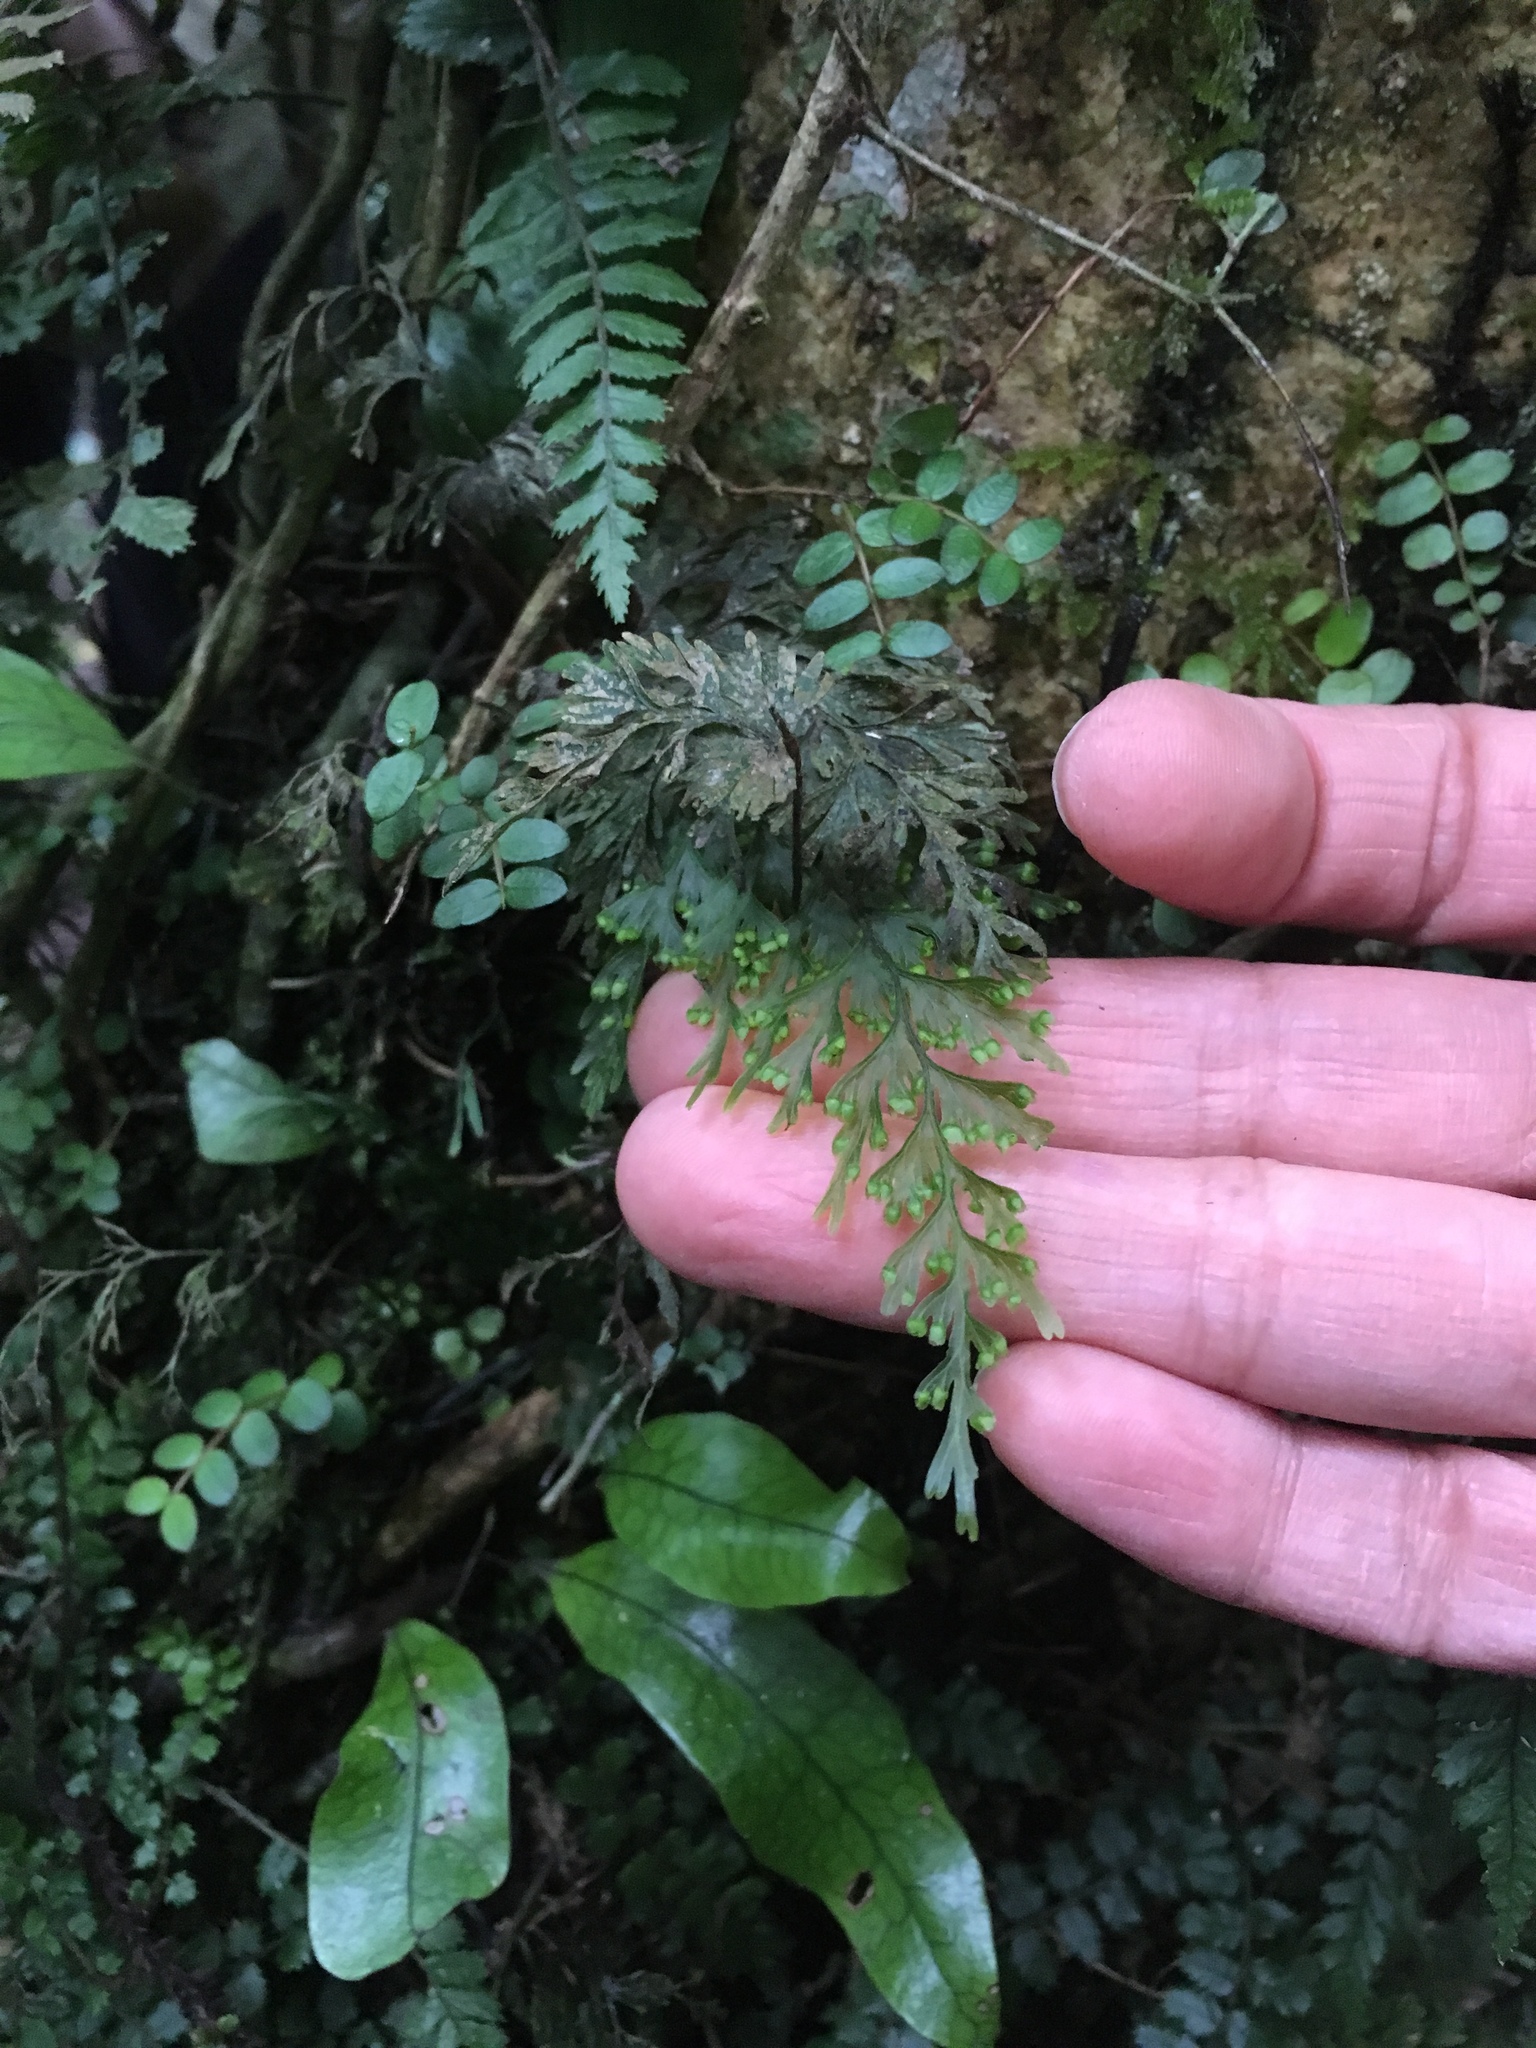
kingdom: Plantae
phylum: Tracheophyta
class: Polypodiopsida
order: Hymenophyllales
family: Hymenophyllaceae
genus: Hymenophyllum
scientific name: Hymenophyllum demissum
